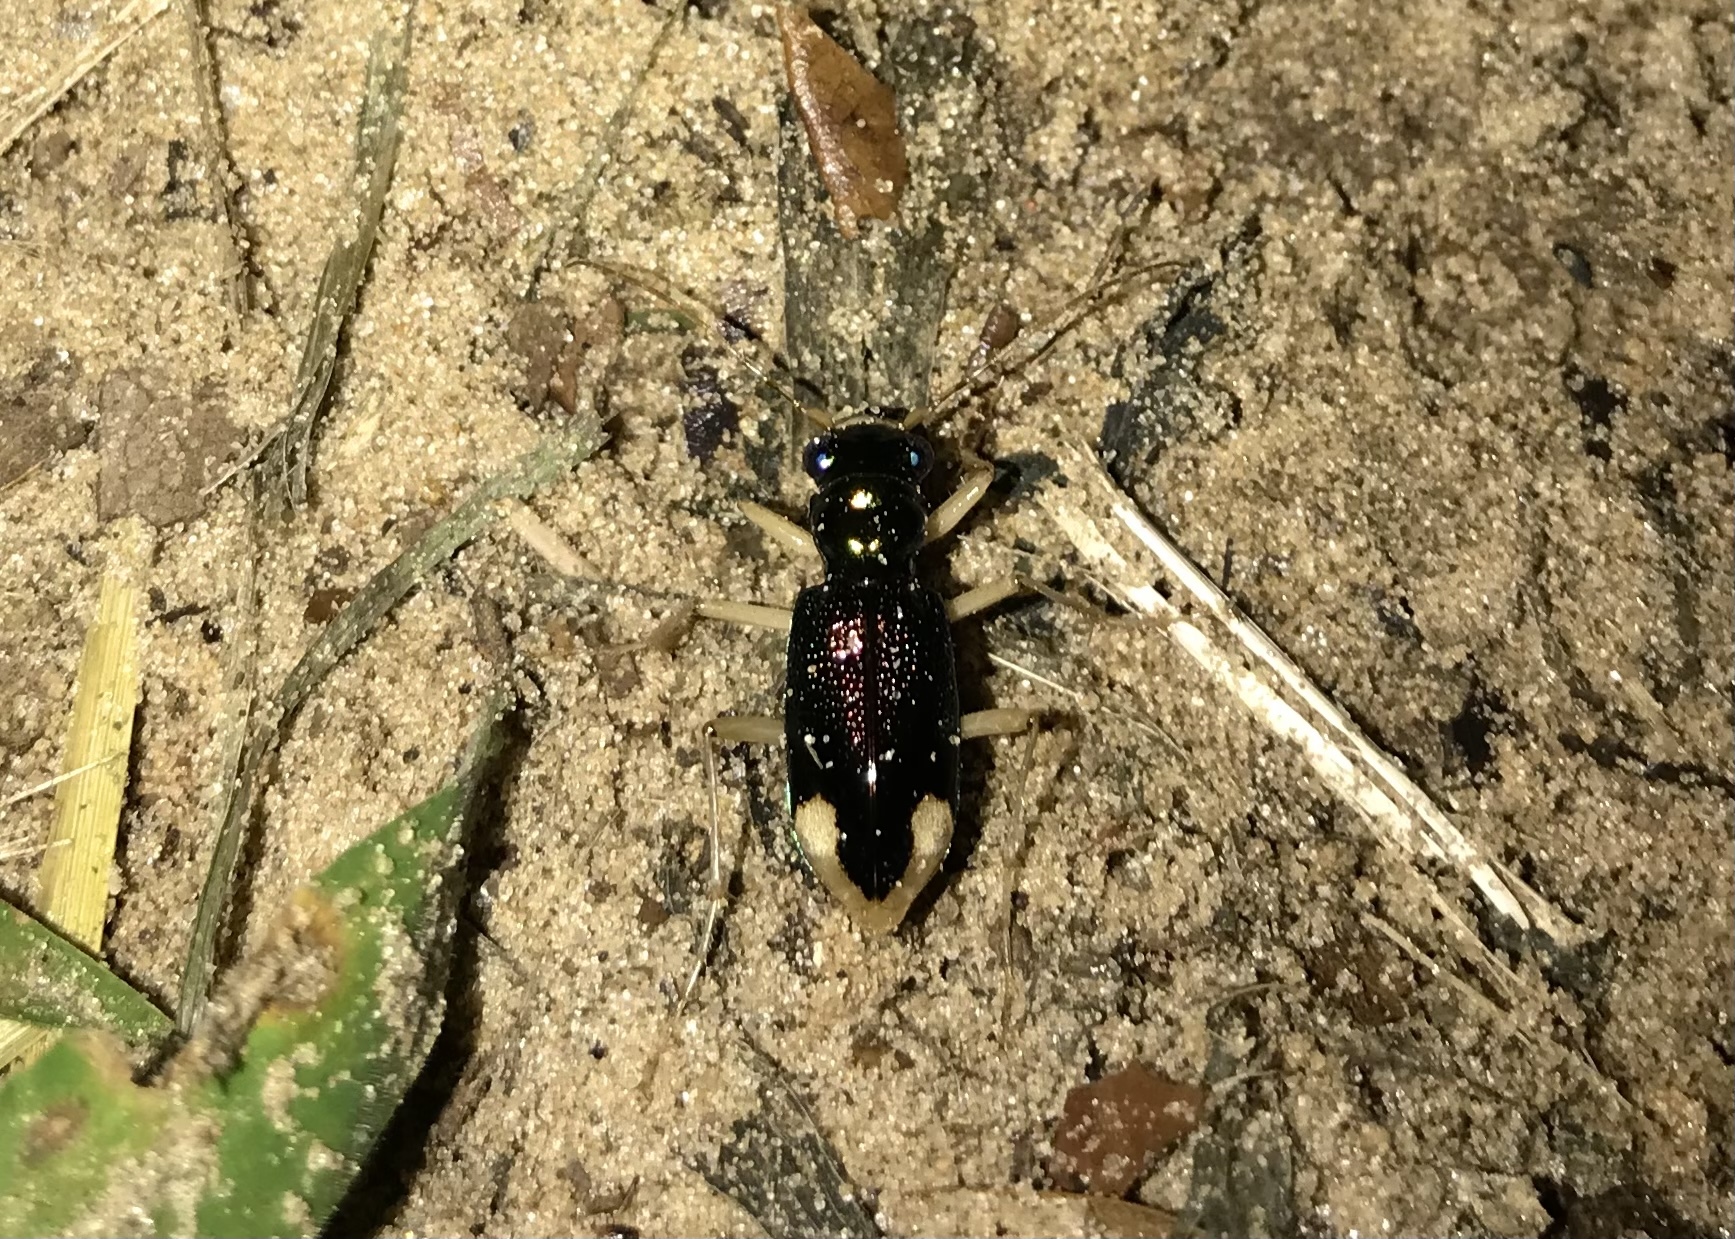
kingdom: Animalia
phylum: Arthropoda
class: Insecta
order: Coleoptera
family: Carabidae
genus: Tetracha
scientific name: Tetracha carolina
